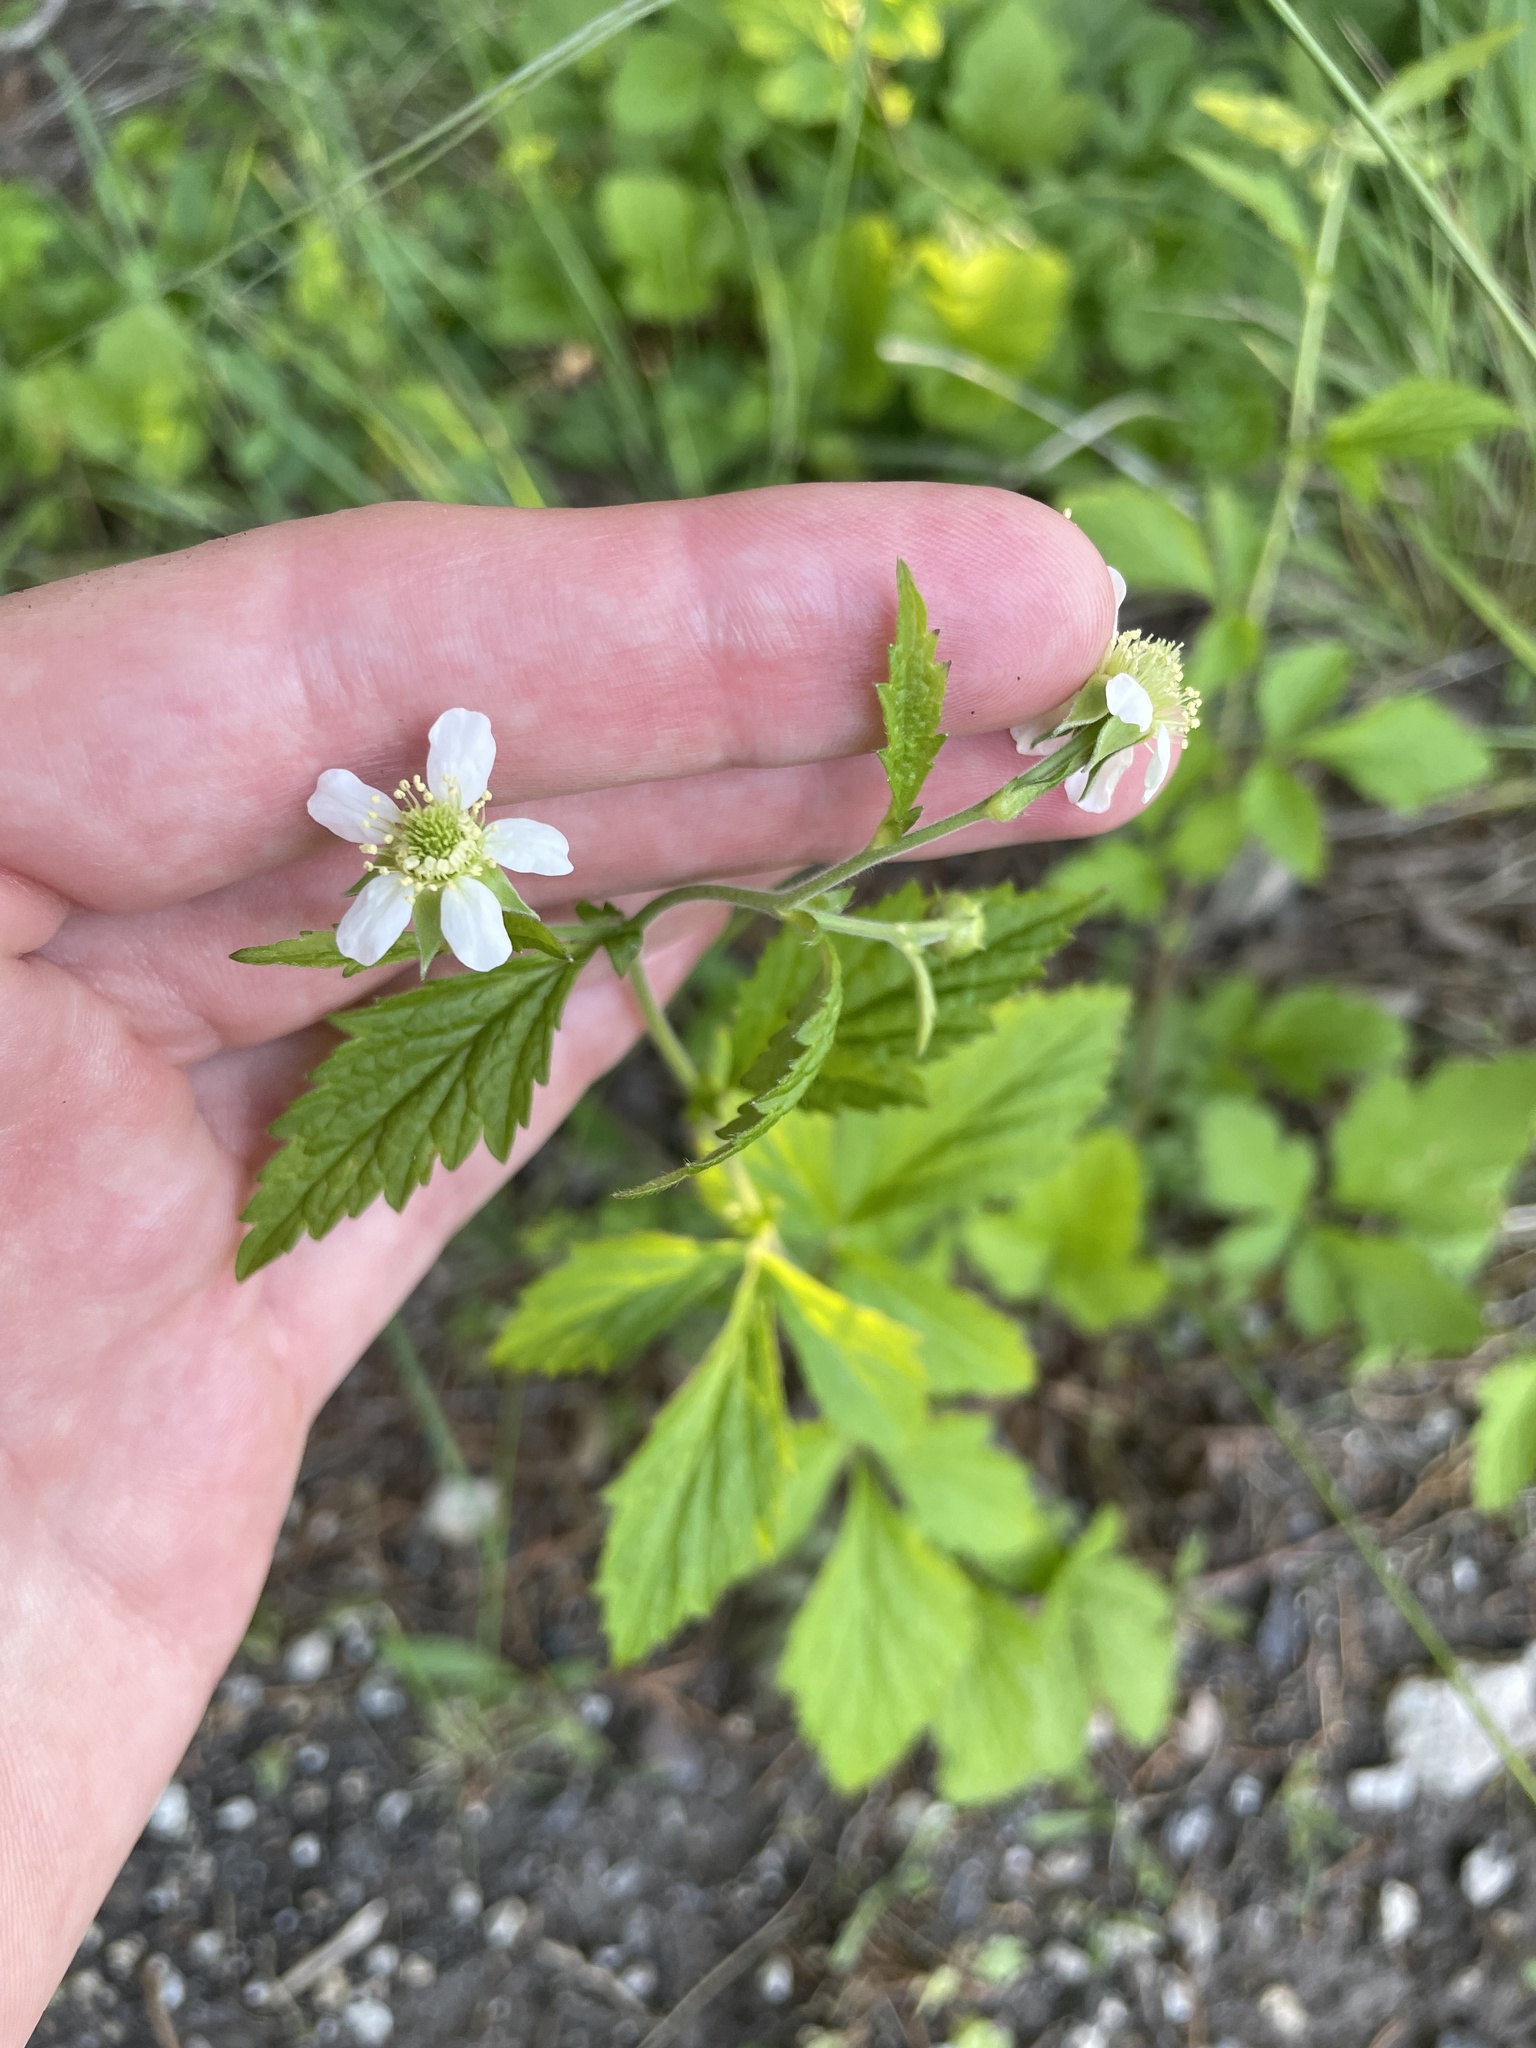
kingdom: Plantae
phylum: Tracheophyta
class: Magnoliopsida
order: Rosales
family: Rosaceae
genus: Geum
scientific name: Geum canadense
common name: White avens
